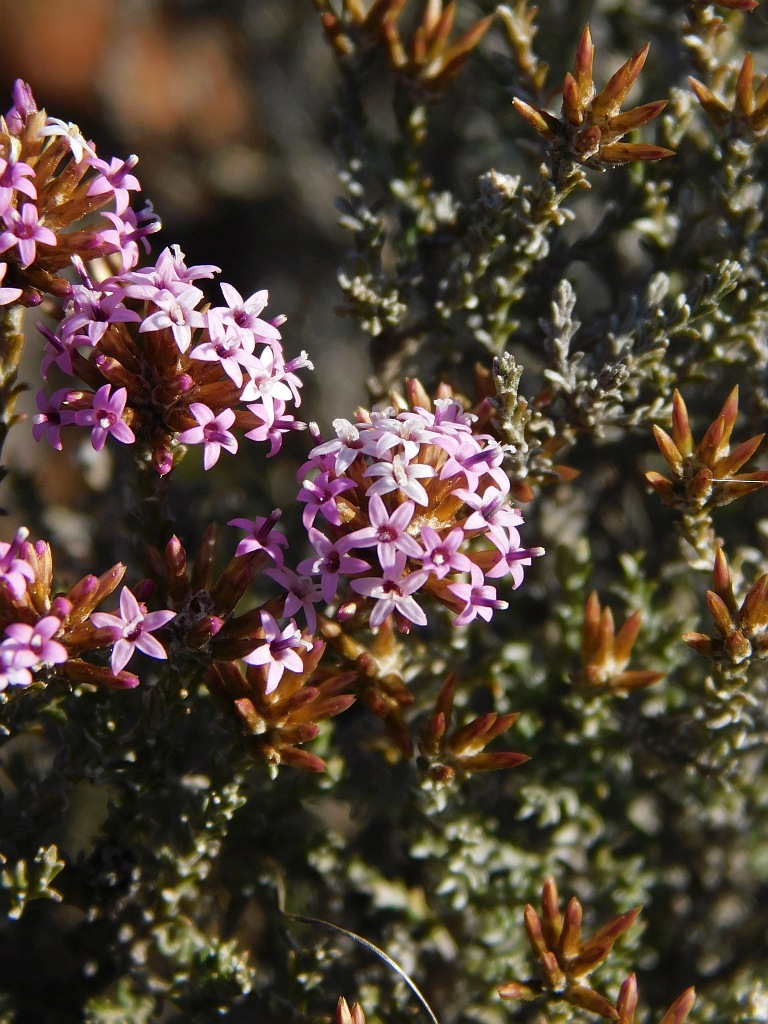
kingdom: Plantae
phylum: Tracheophyta
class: Magnoliopsida
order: Asterales
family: Asteraceae
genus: Stoebe
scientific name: Stoebe fusca
